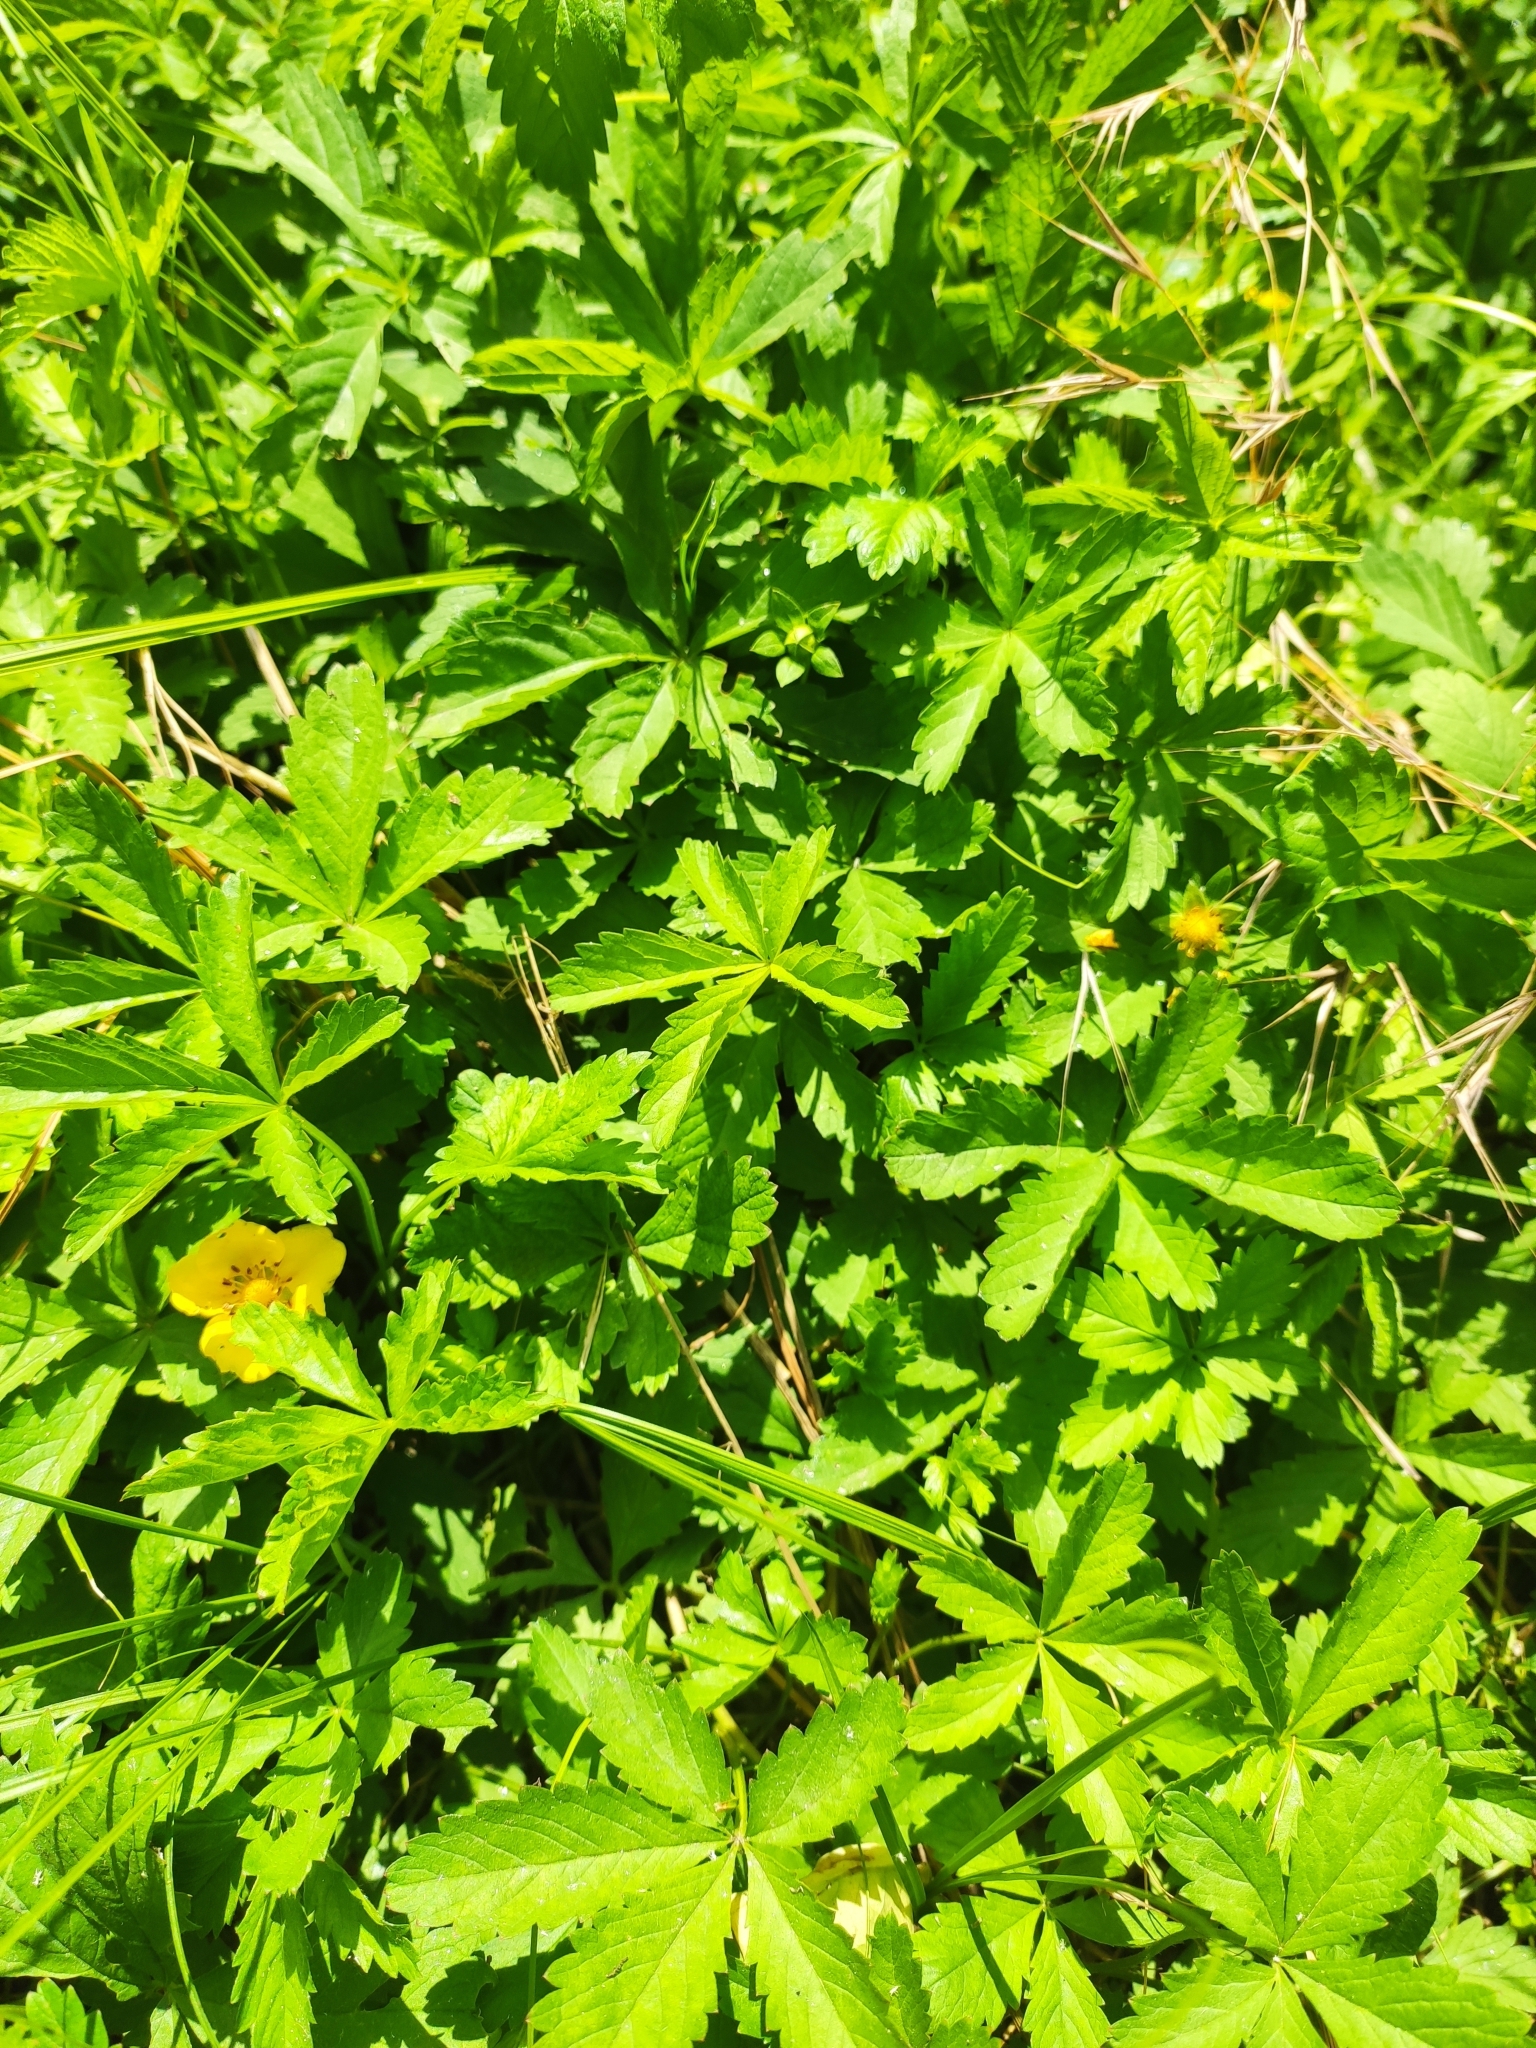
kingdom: Plantae
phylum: Tracheophyta
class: Magnoliopsida
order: Rosales
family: Rosaceae
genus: Potentilla
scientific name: Potentilla reptans
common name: Creeping cinquefoil
